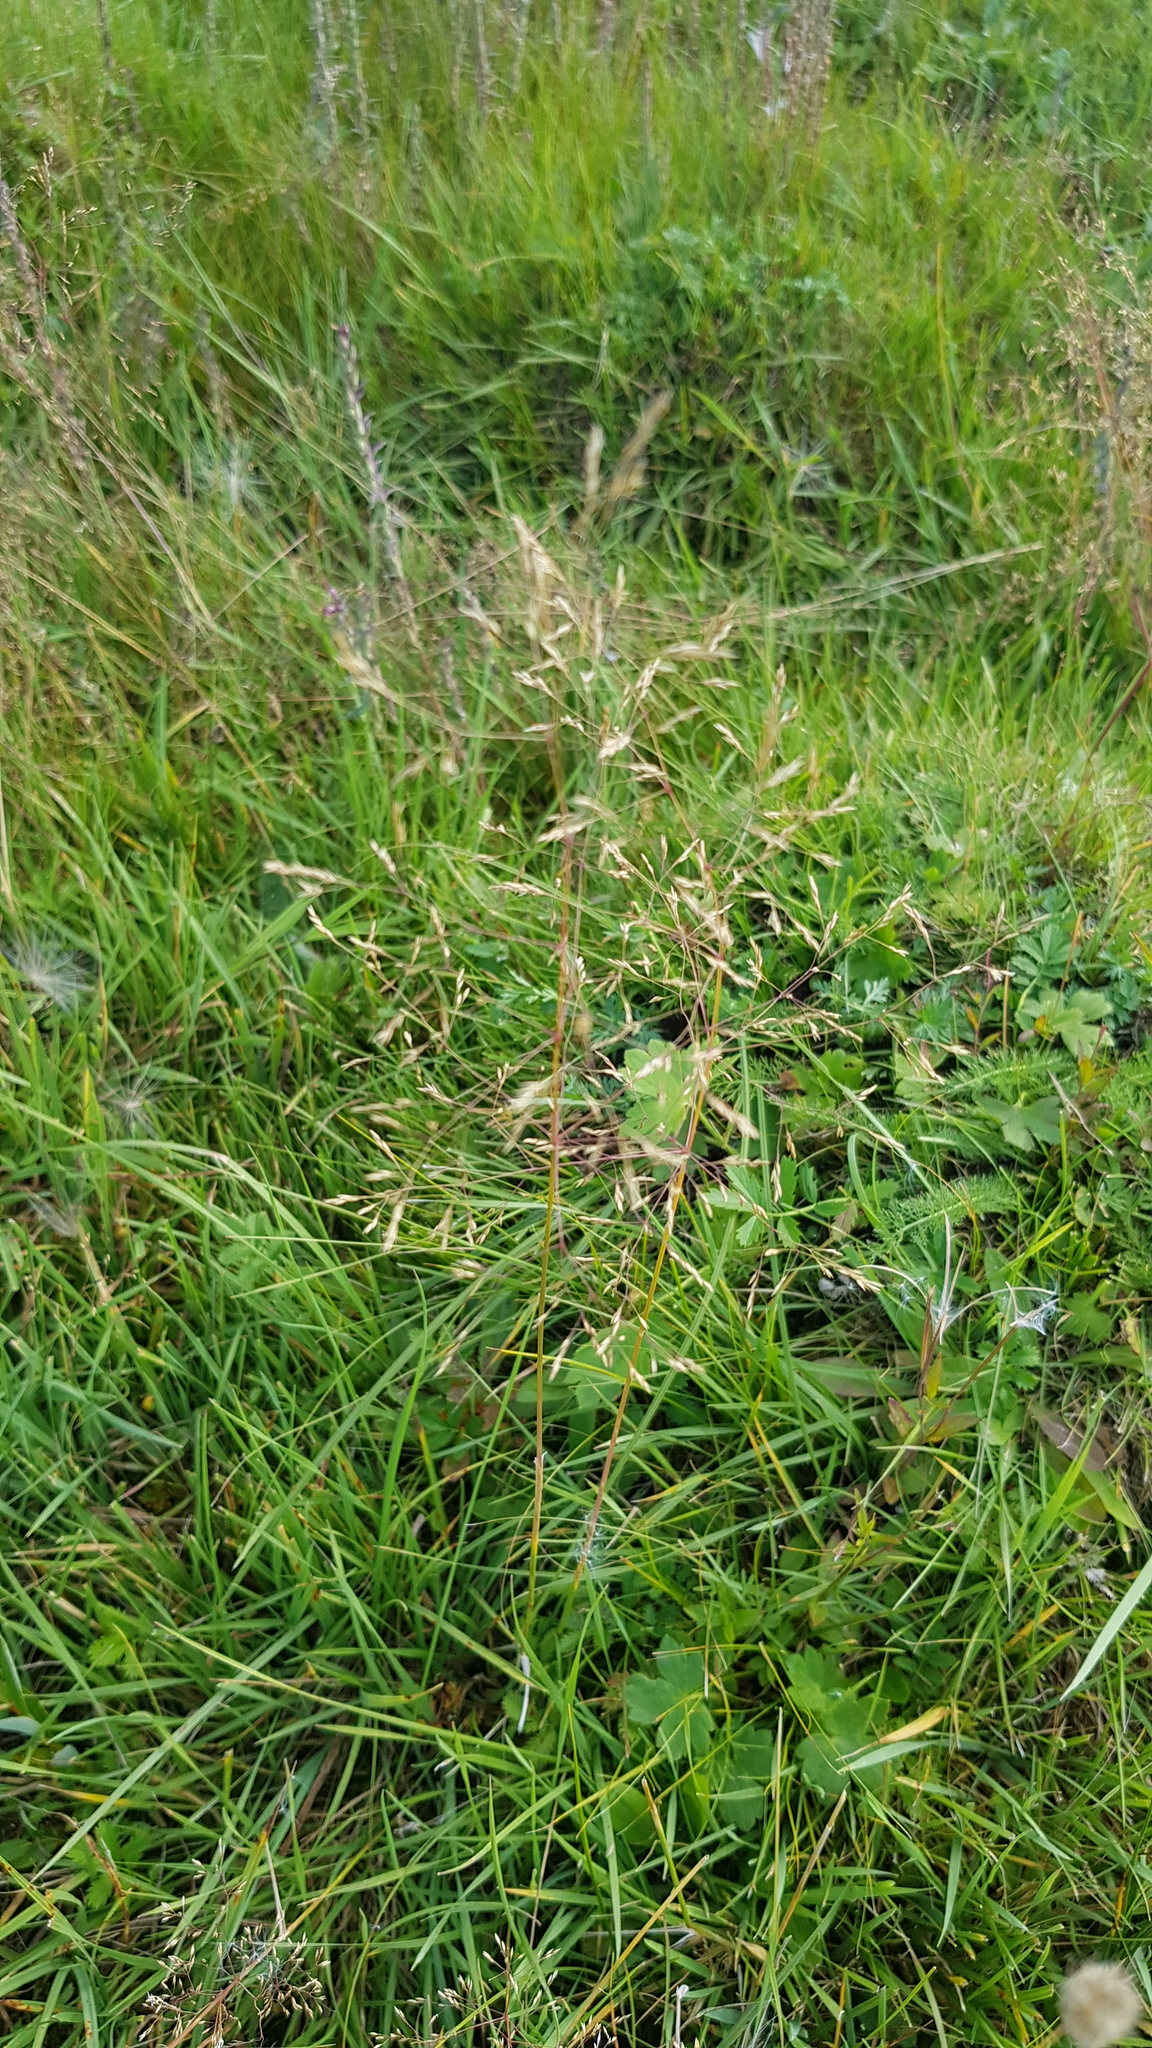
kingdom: Plantae
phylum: Tracheophyta
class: Liliopsida
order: Poales
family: Poaceae
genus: Poa
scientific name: Poa pratensis
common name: Kentucky bluegrass
